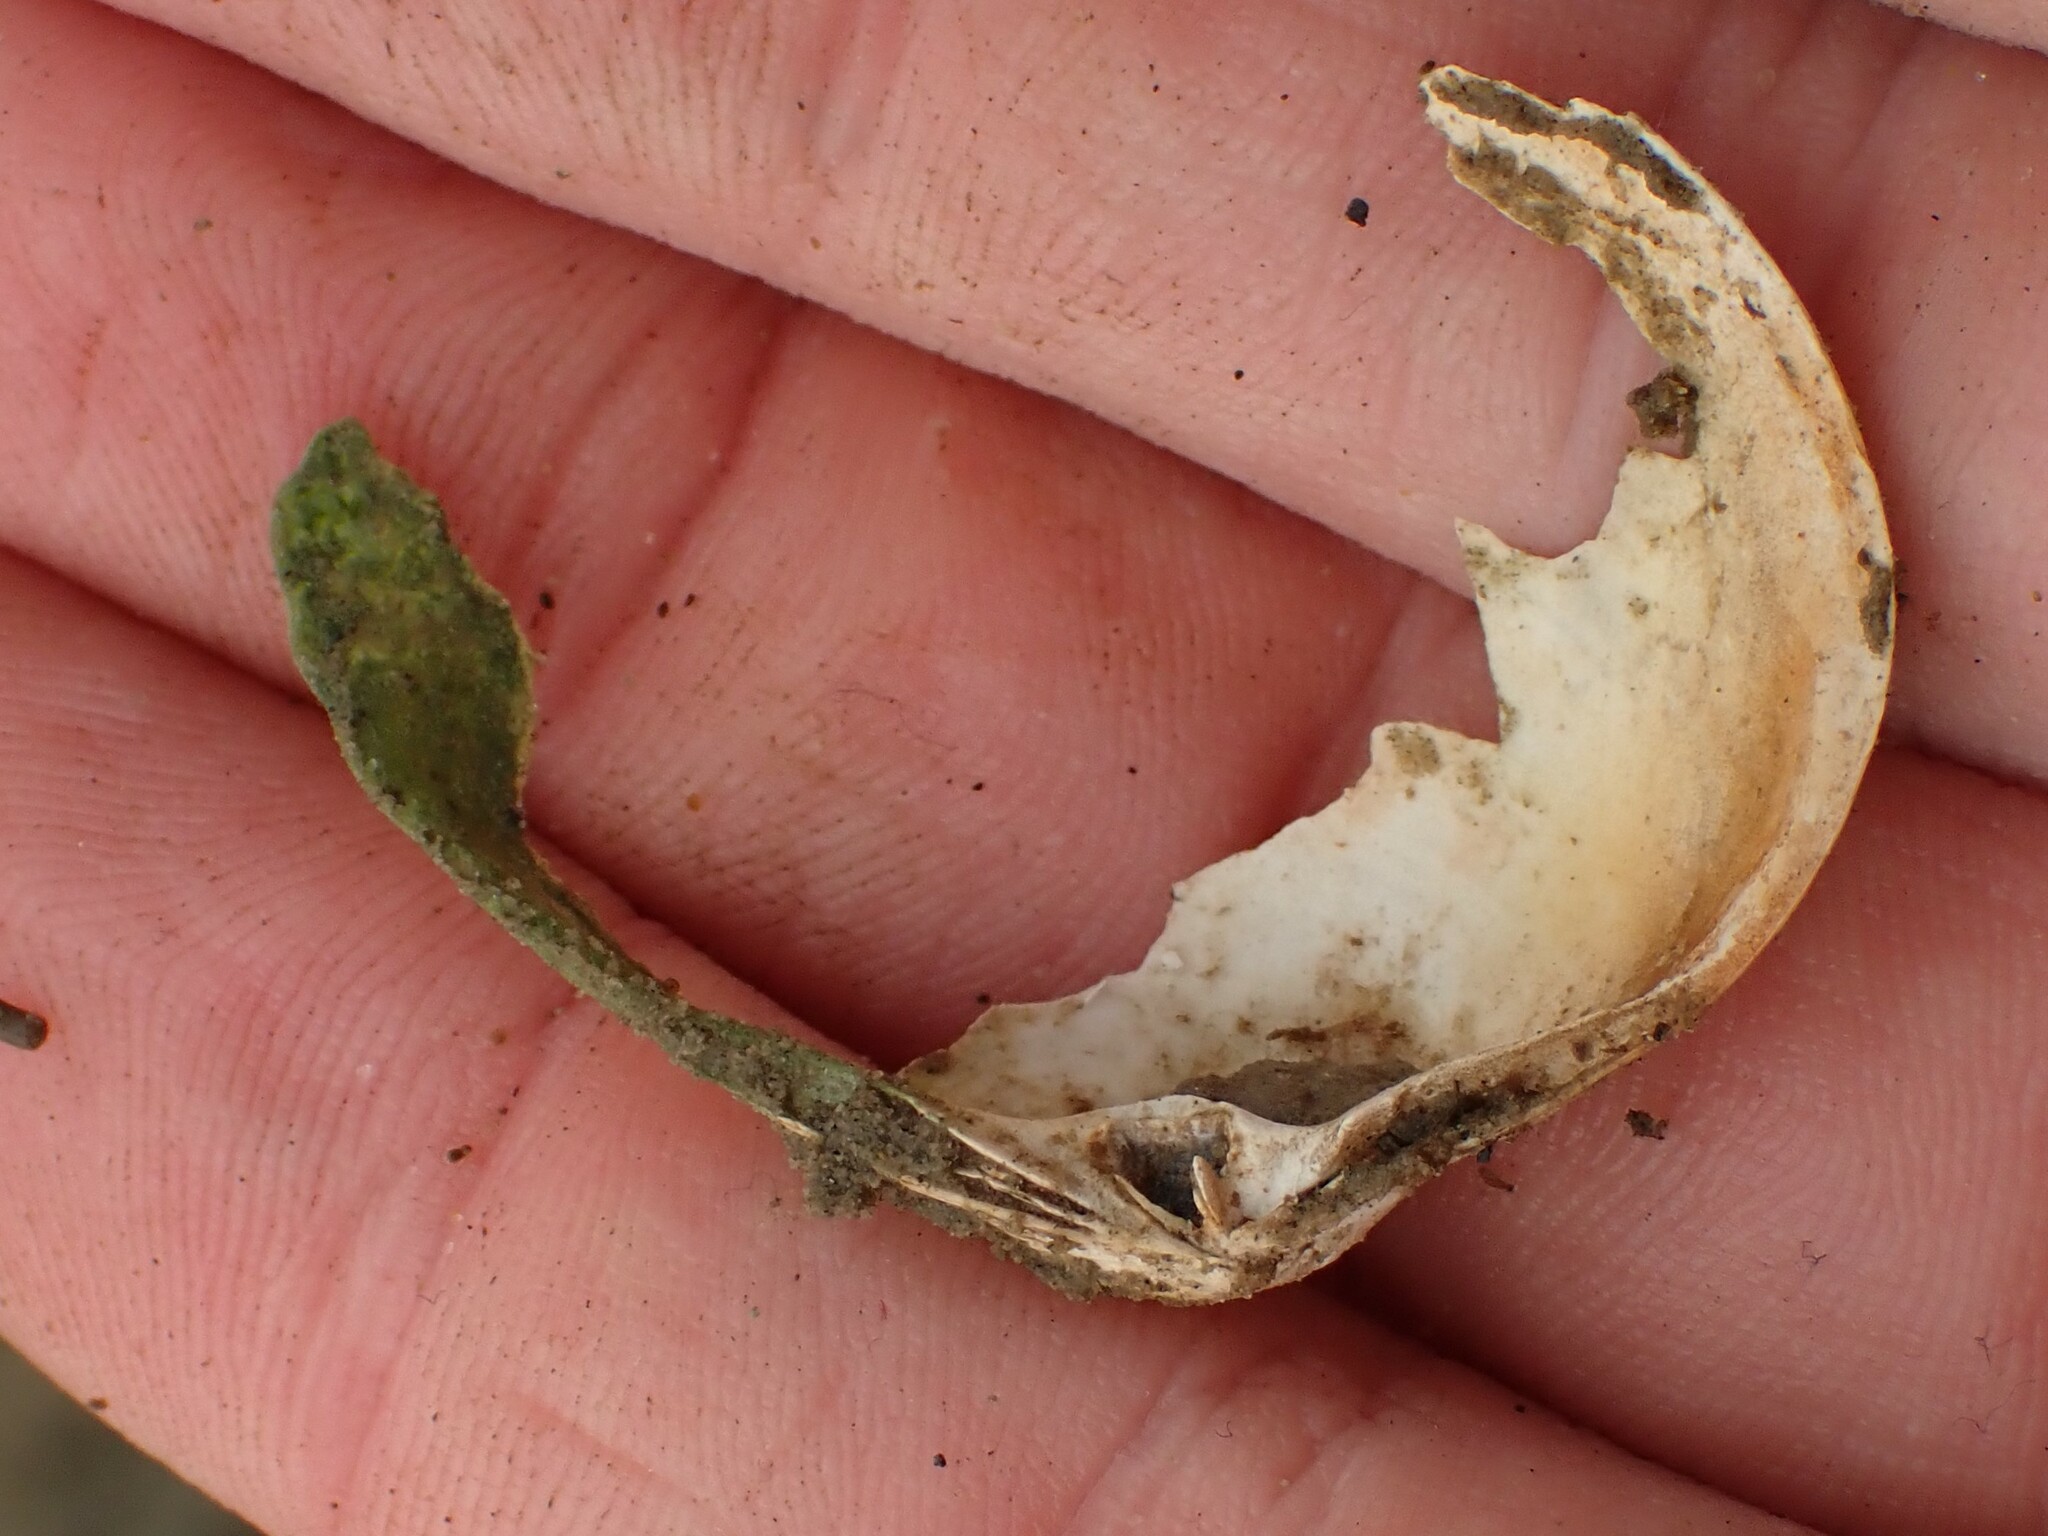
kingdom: Animalia
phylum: Mollusca
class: Bivalvia
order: Venerida
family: Mactridae
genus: Cyclomactra
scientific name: Cyclomactra ovata
